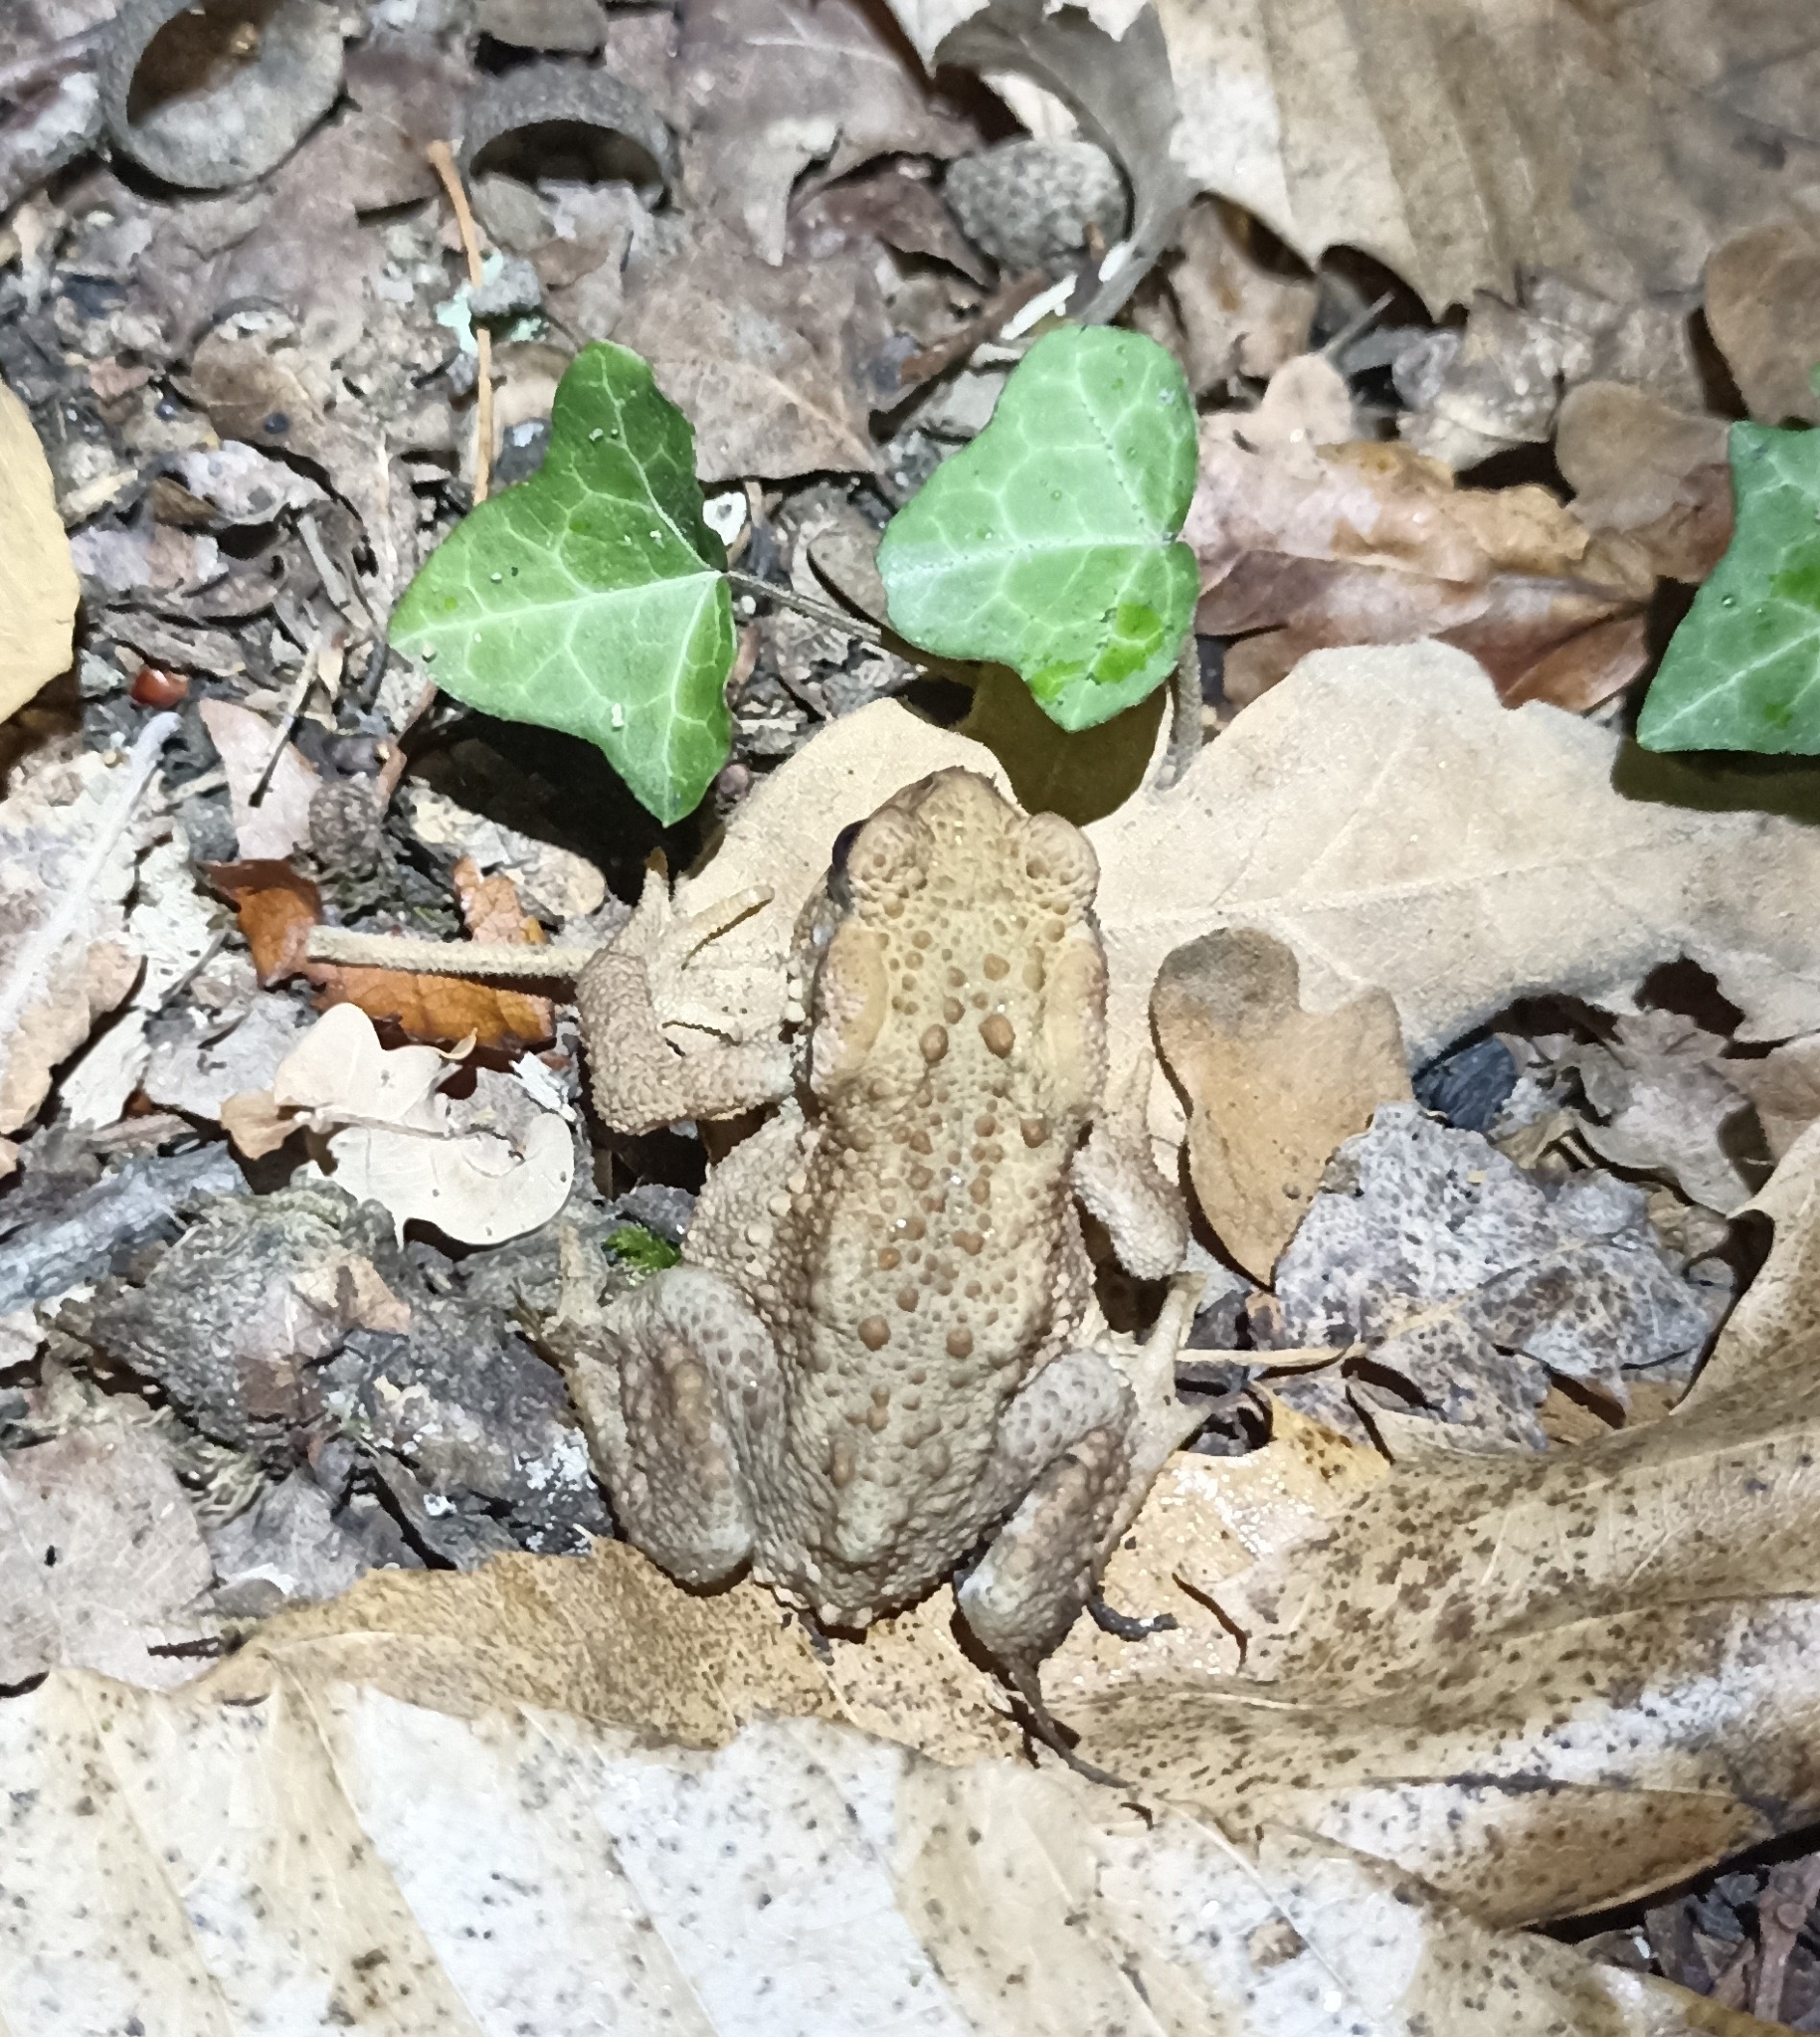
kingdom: Animalia
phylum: Chordata
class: Amphibia
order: Anura
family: Bufonidae
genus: Bufo
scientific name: Bufo spinosus
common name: Western common toad
